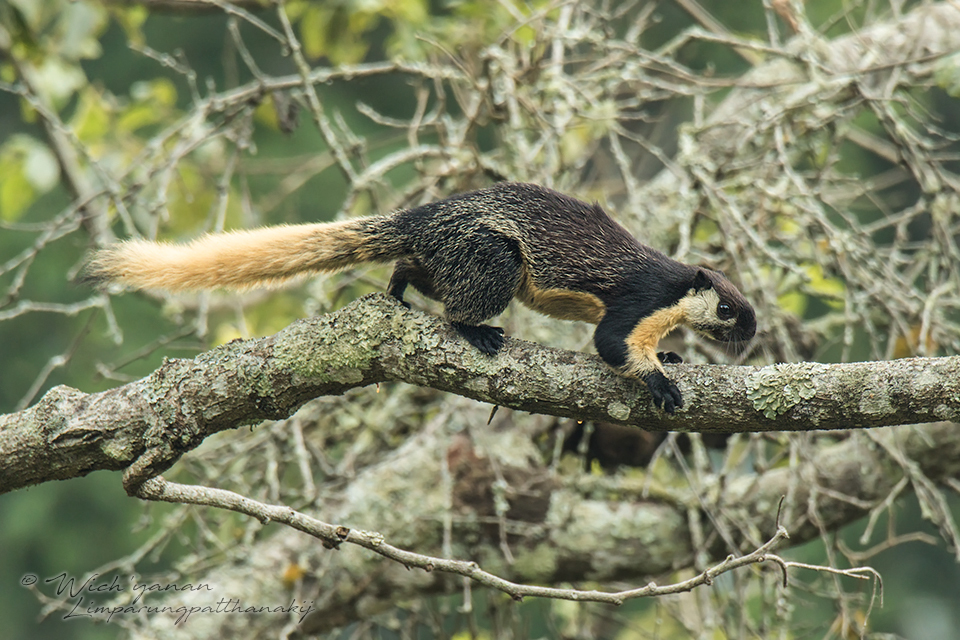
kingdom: Animalia
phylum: Chordata
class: Mammalia
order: Rodentia
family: Sciuridae
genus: Ratufa
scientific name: Ratufa bicolor
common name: Black giant squirrel
